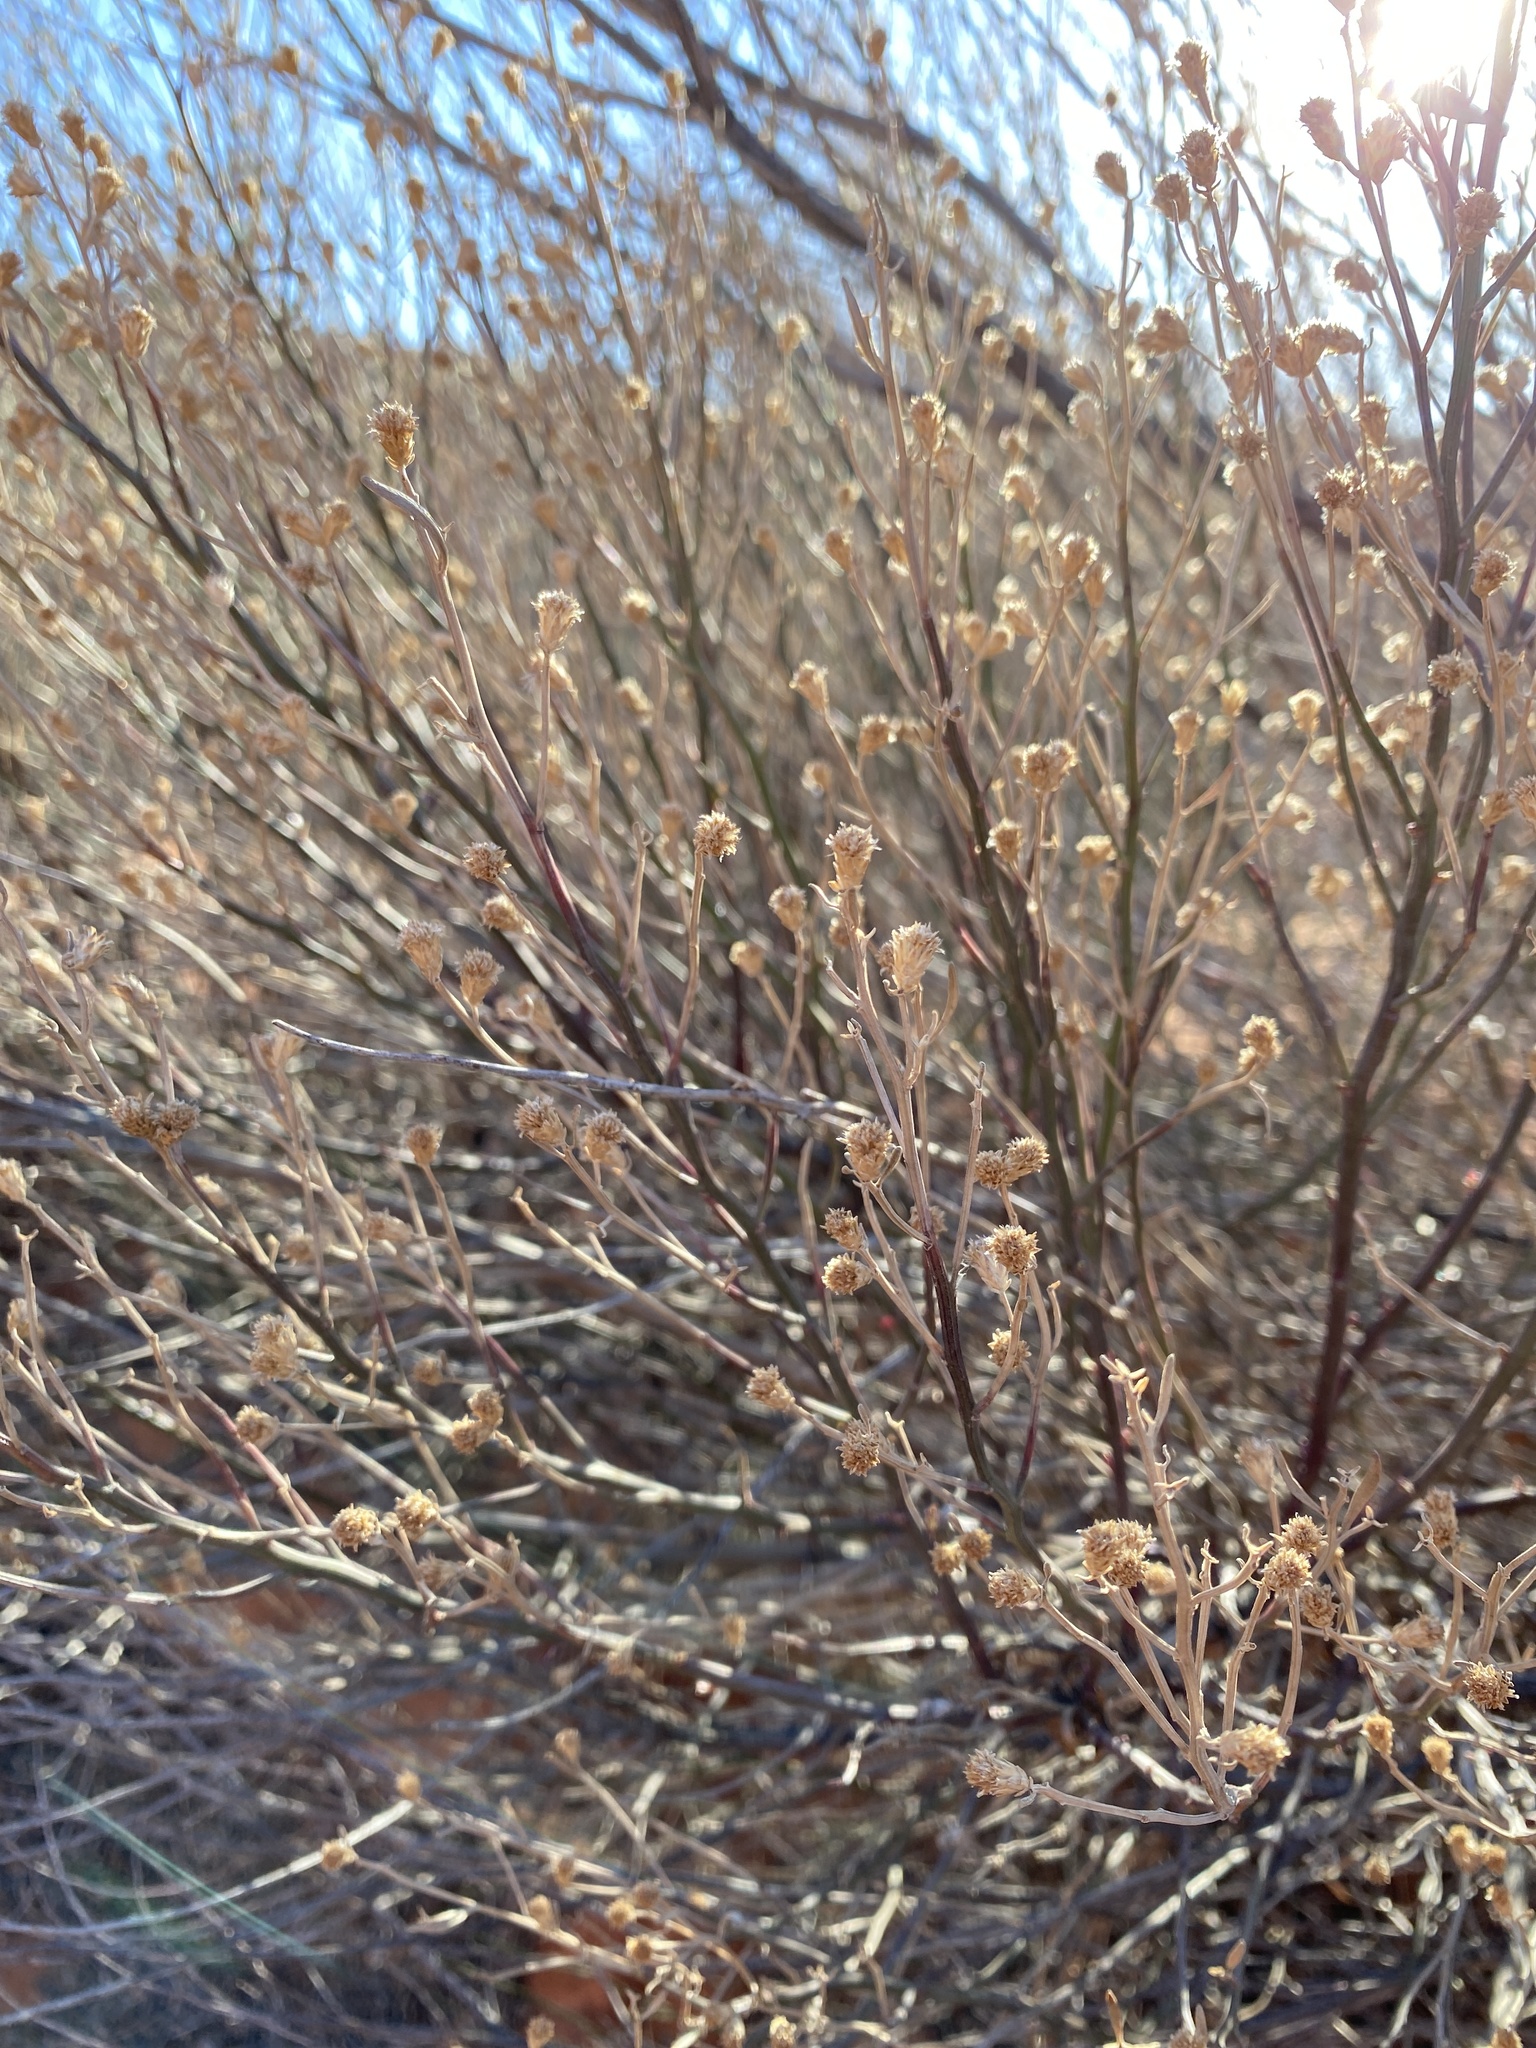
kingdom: Plantae
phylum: Tracheophyta
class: Magnoliopsida
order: Asterales
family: Asteraceae
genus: Baccharis
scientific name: Baccharis sarothroides
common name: Desert-broom
